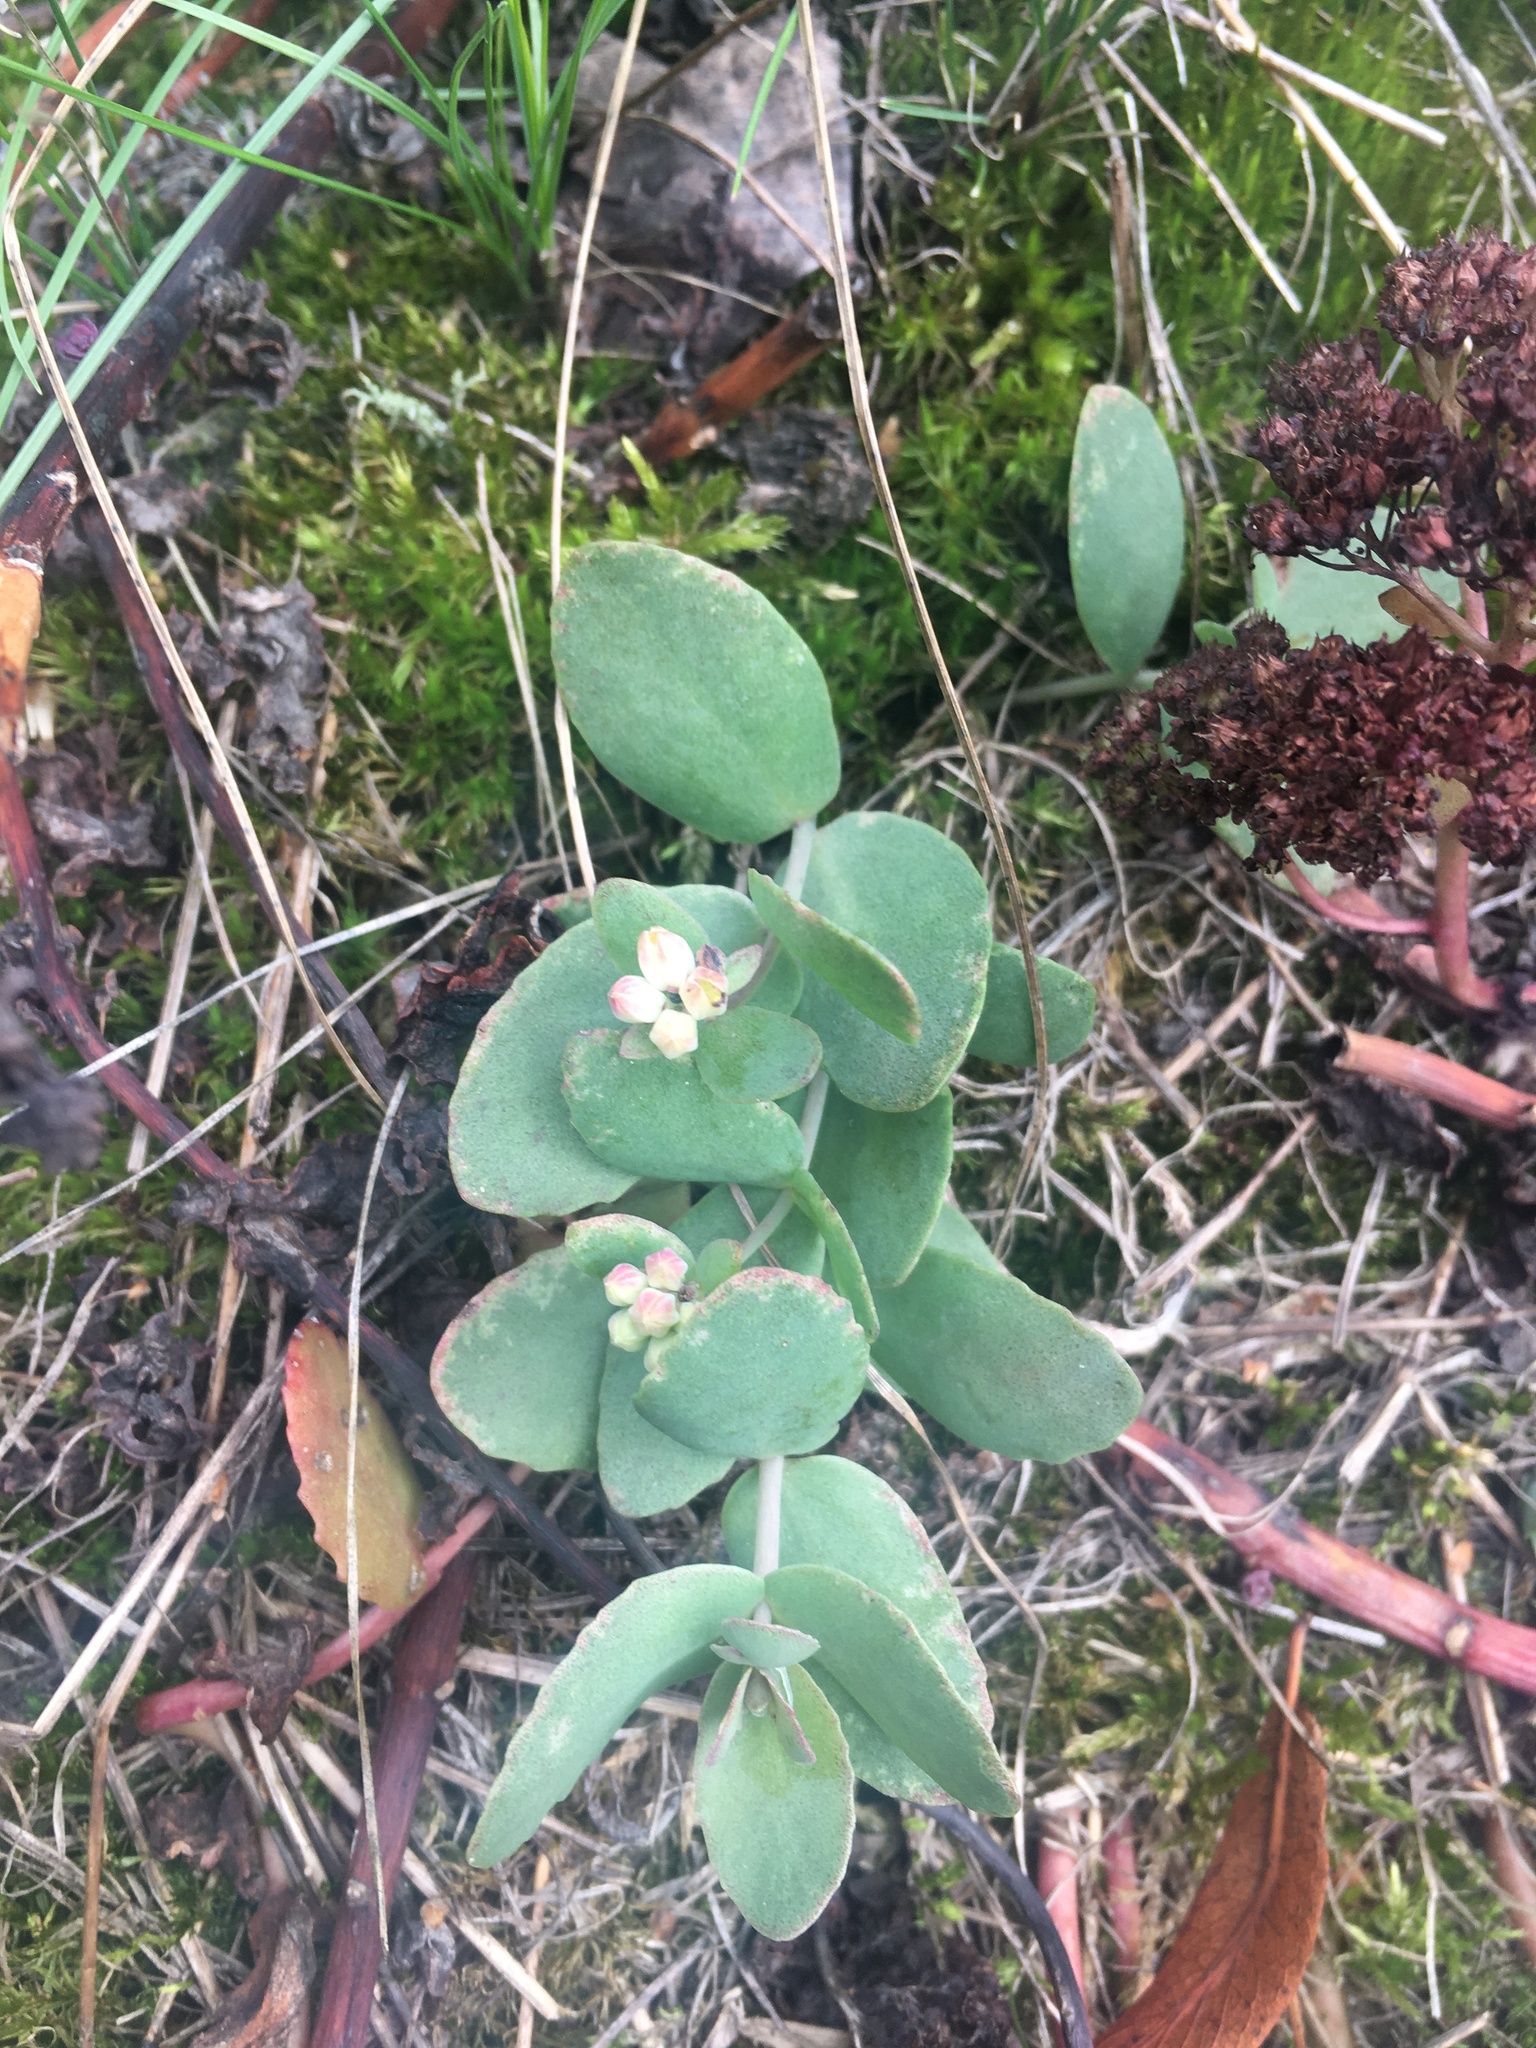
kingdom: Plantae
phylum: Tracheophyta
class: Magnoliopsida
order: Saxifragales
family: Crassulaceae
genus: Hylotelephium
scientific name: Hylotelephium maximum
